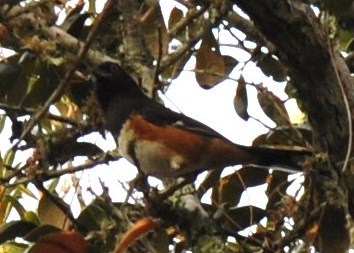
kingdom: Animalia
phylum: Chordata
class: Aves
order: Passeriformes
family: Passerellidae
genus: Pipilo
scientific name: Pipilo erythrophthalmus
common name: Eastern towhee
